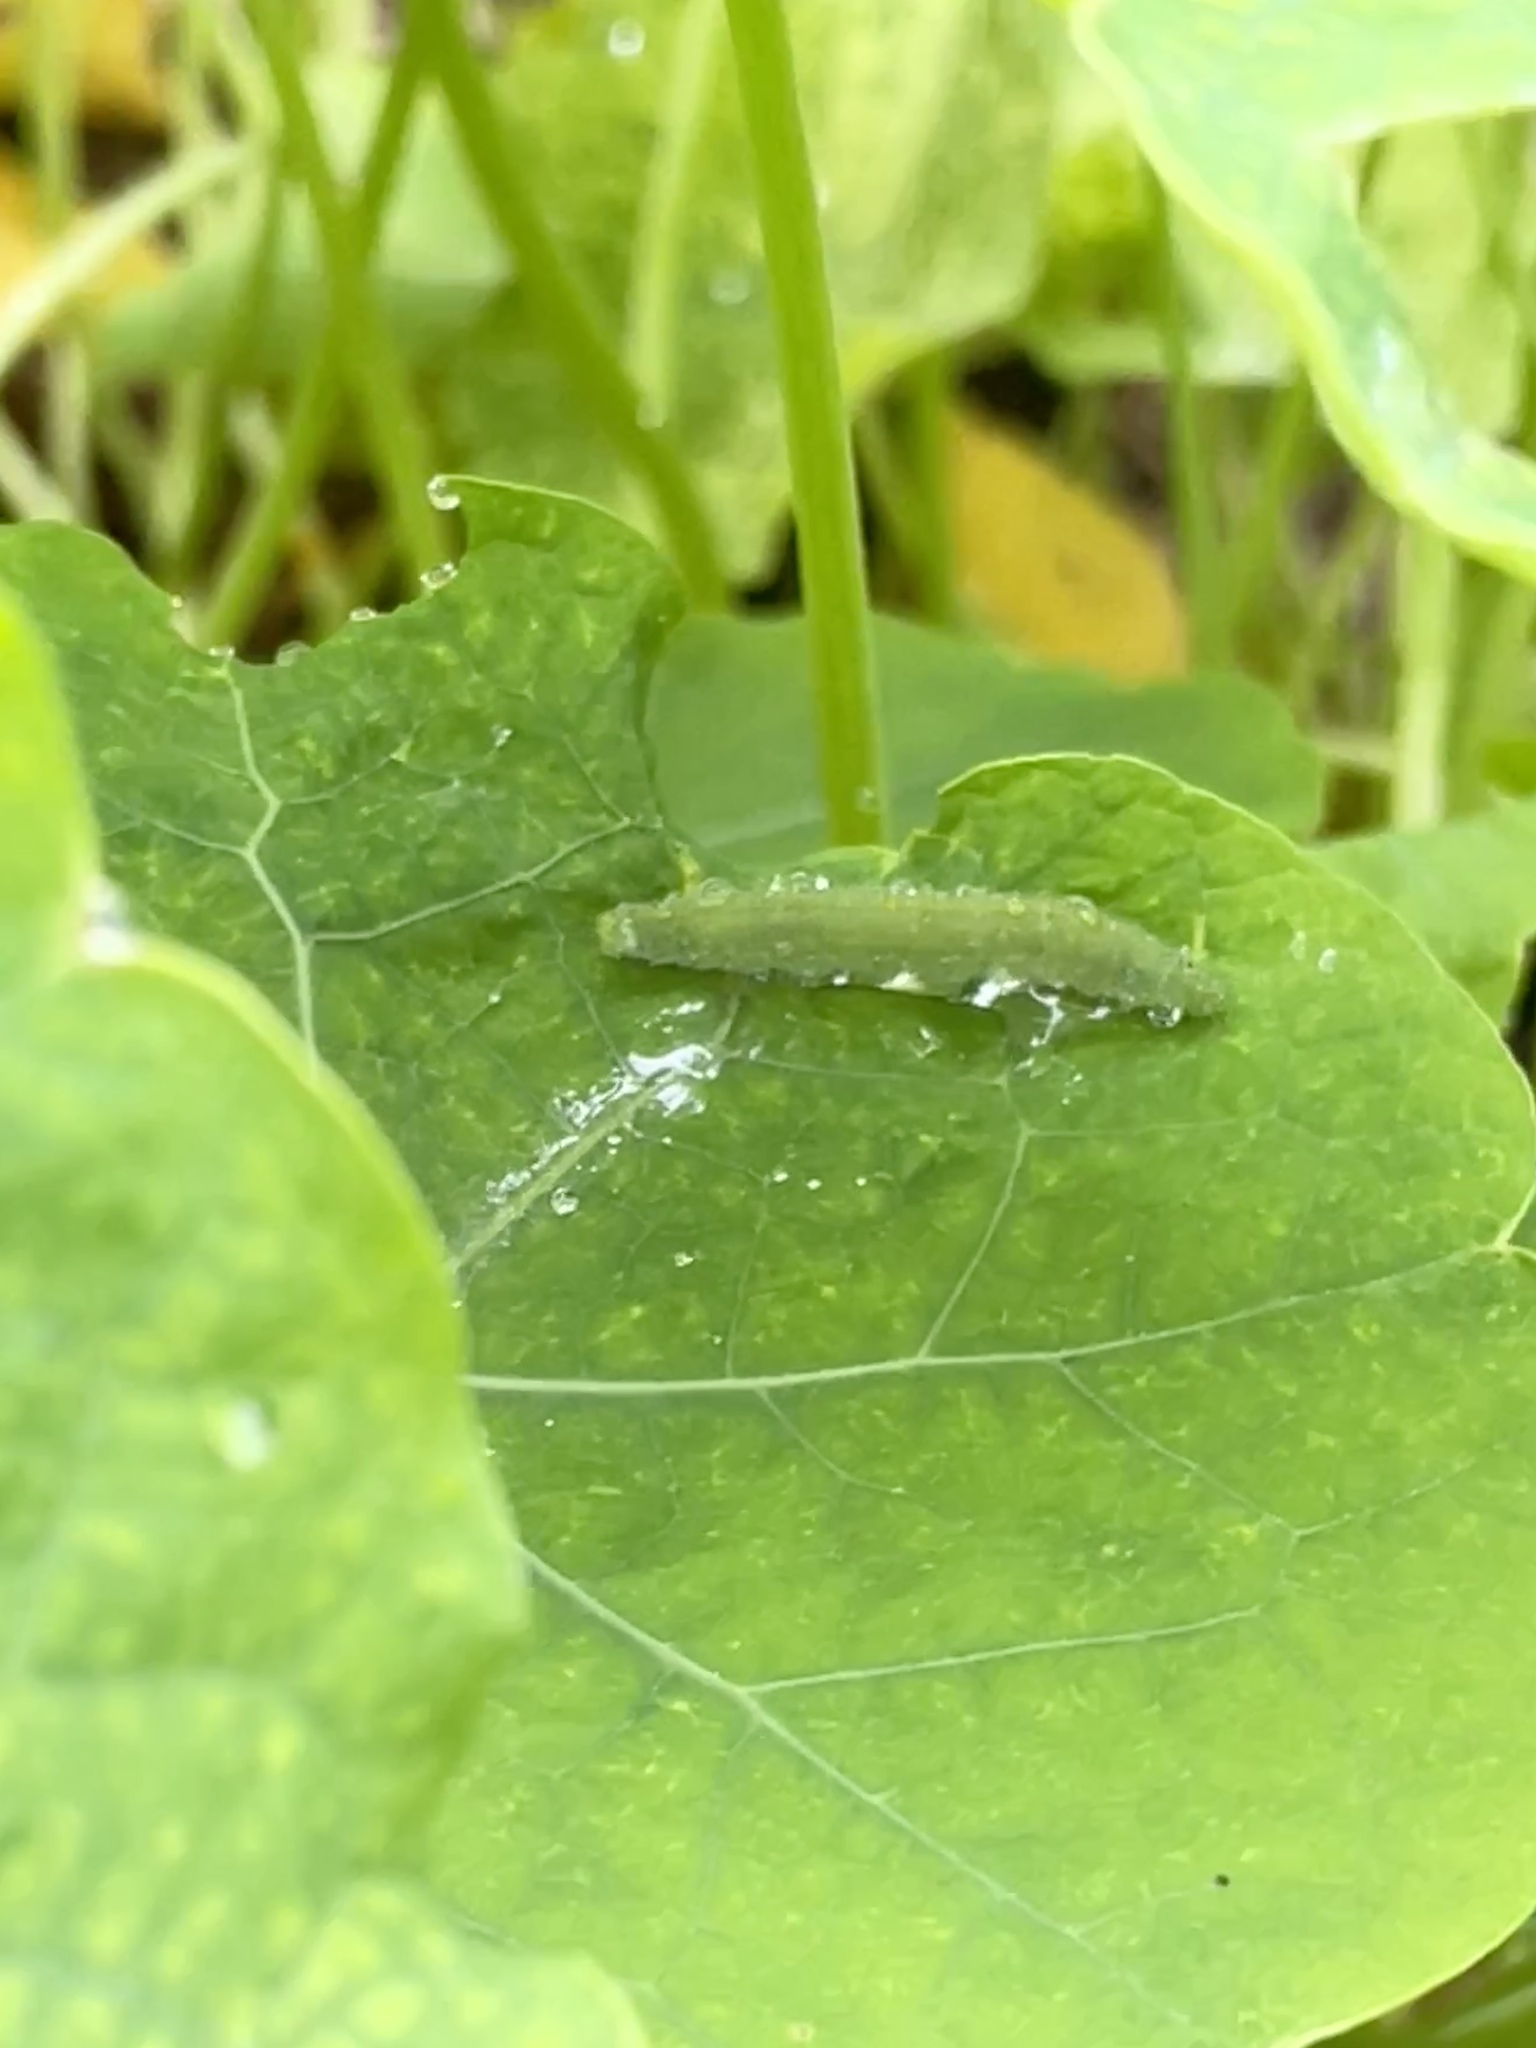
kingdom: Animalia
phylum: Arthropoda
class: Insecta
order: Lepidoptera
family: Pieridae
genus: Pieris
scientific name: Pieris rapae
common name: Small white
